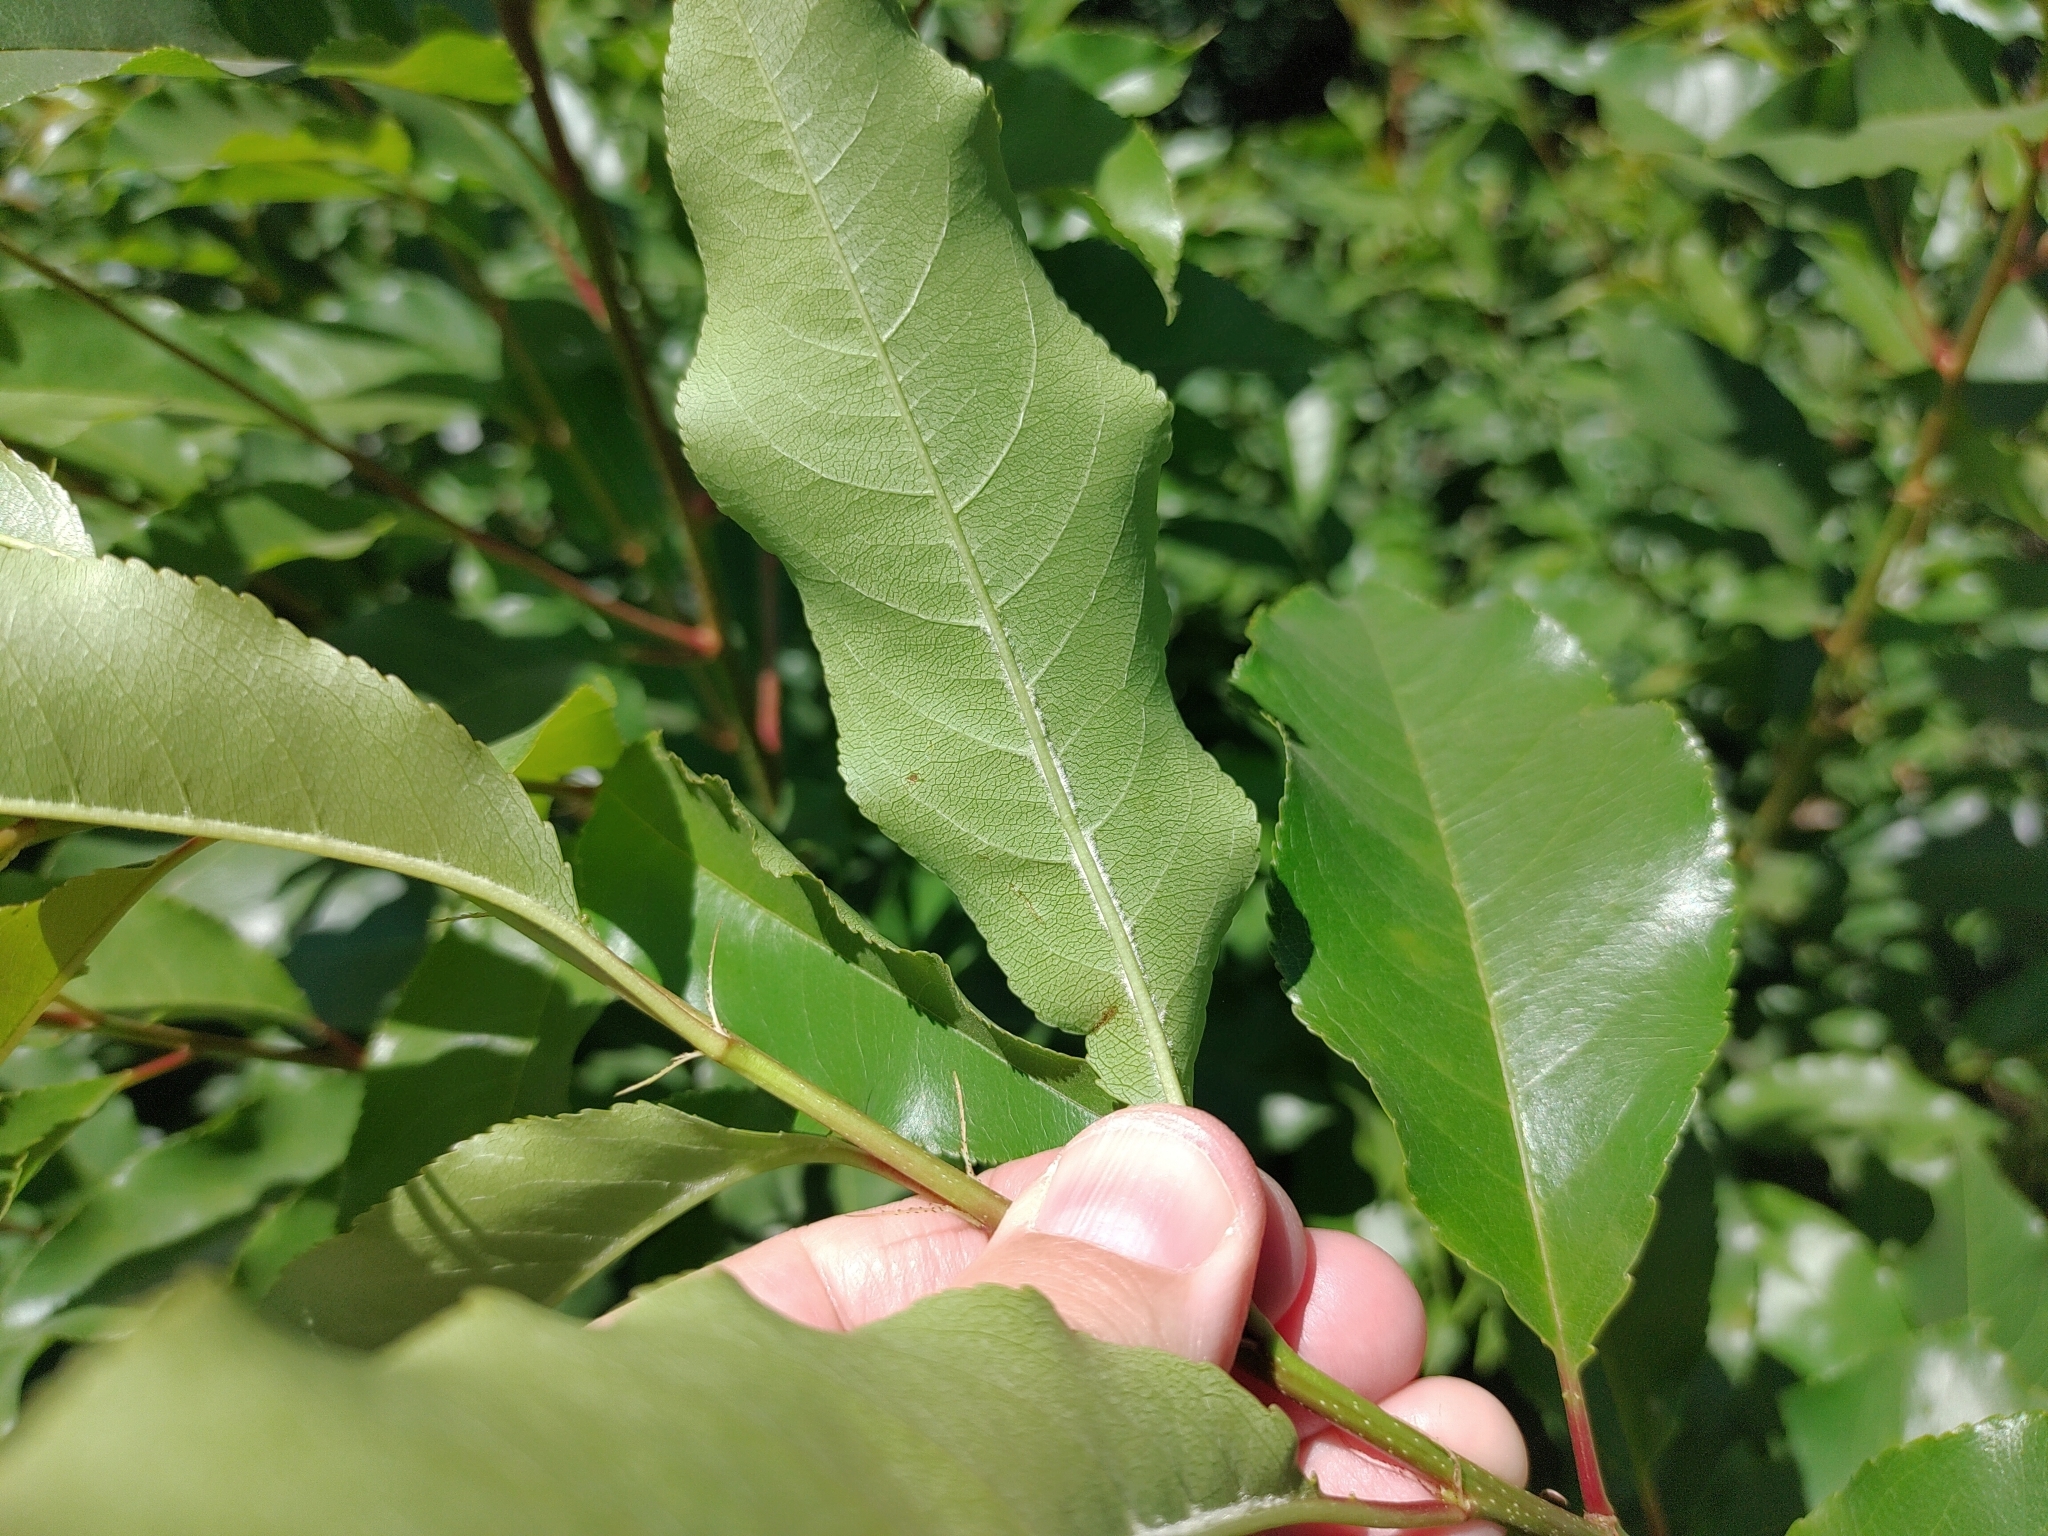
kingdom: Plantae
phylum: Tracheophyta
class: Magnoliopsida
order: Rosales
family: Rosaceae
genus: Prunus
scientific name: Prunus serotina
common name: Black cherry
